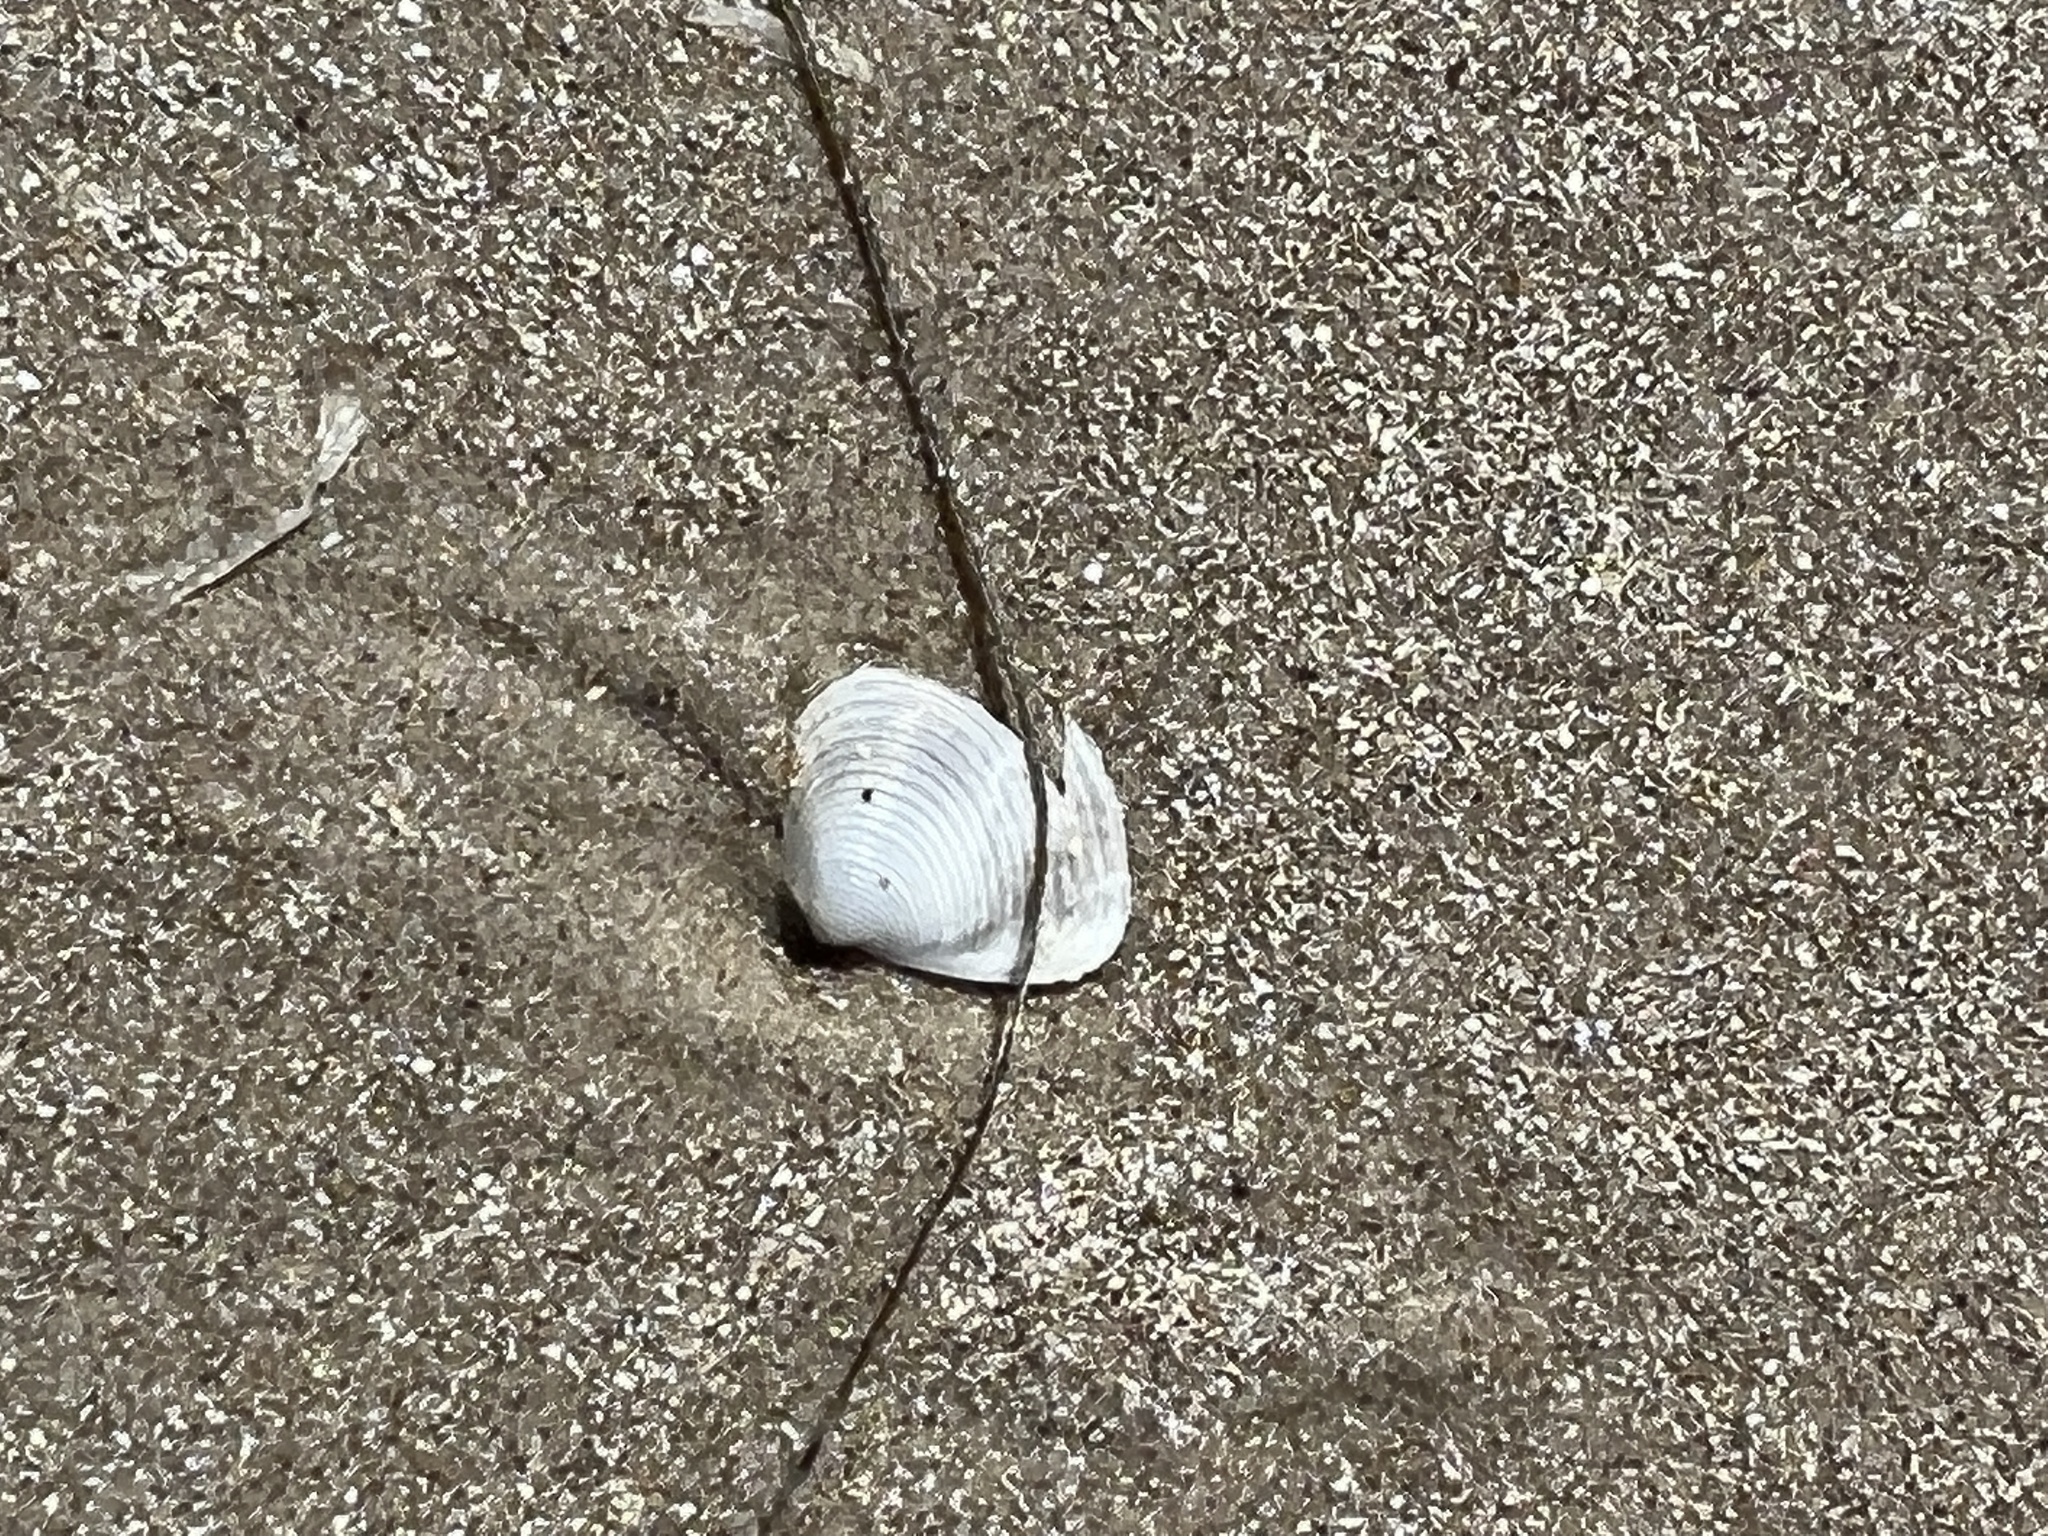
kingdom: Animalia
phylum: Mollusca
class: Bivalvia
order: Venerida
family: Anatinellidae
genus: Raeta
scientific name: Raeta plicatella
